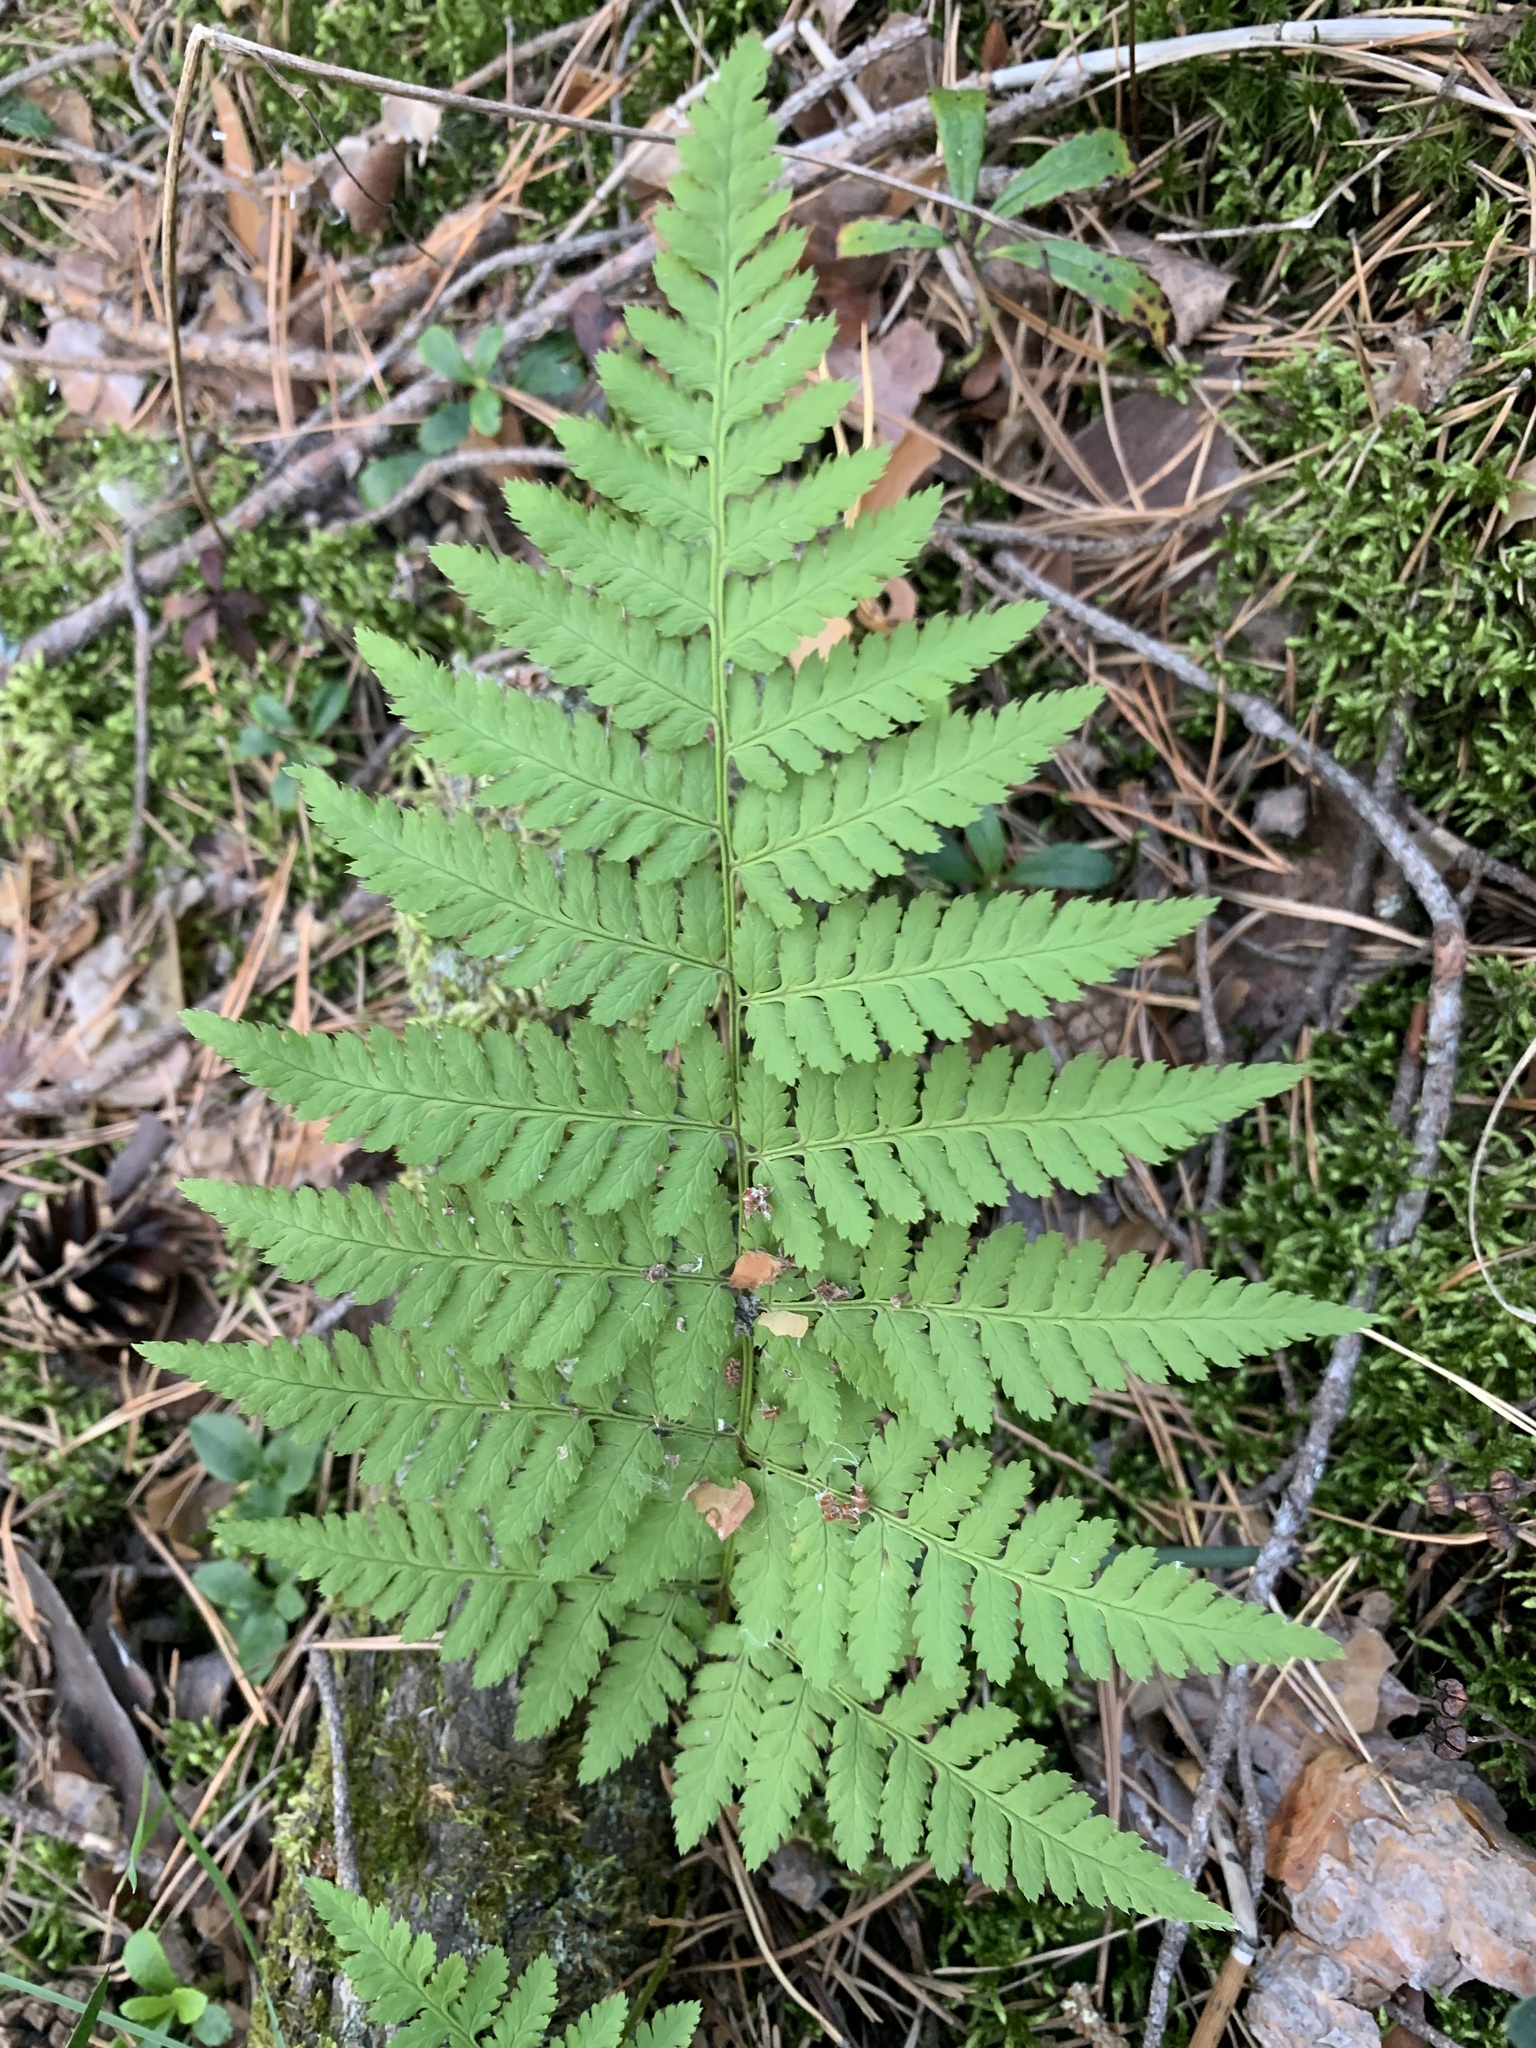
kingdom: Plantae
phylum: Tracheophyta
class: Polypodiopsida
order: Polypodiales
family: Dryopteridaceae
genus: Dryopteris
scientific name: Dryopteris carthusiana
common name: Narrow buckler-fern
